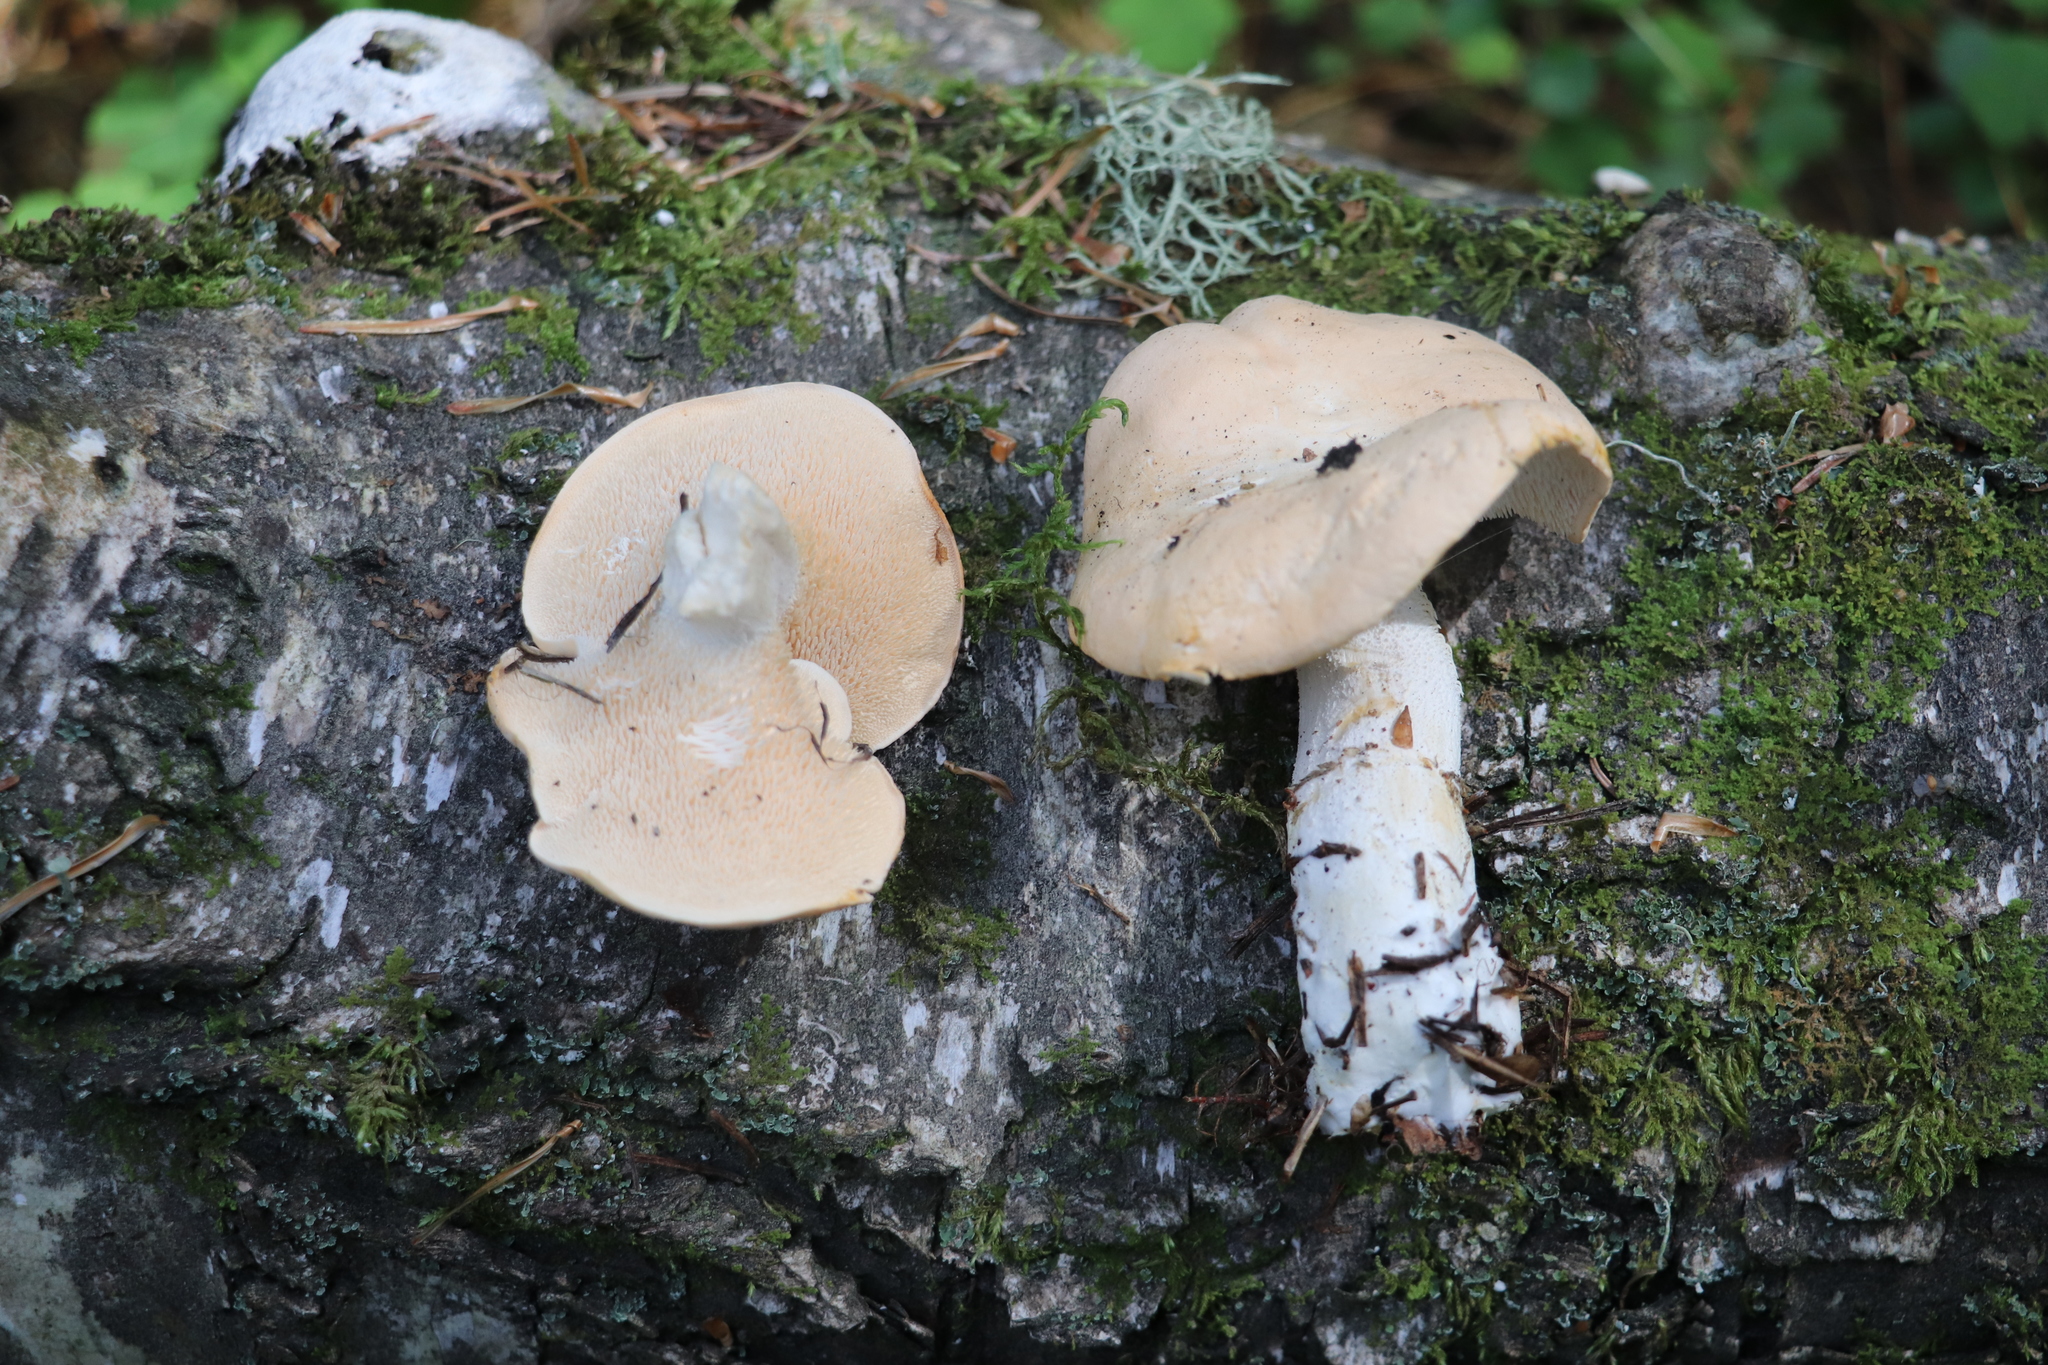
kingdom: Fungi
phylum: Basidiomycota
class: Agaricomycetes
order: Cantharellales
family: Hydnaceae
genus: Hydnum
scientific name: Hydnum repandum
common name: Wood hedgehog
